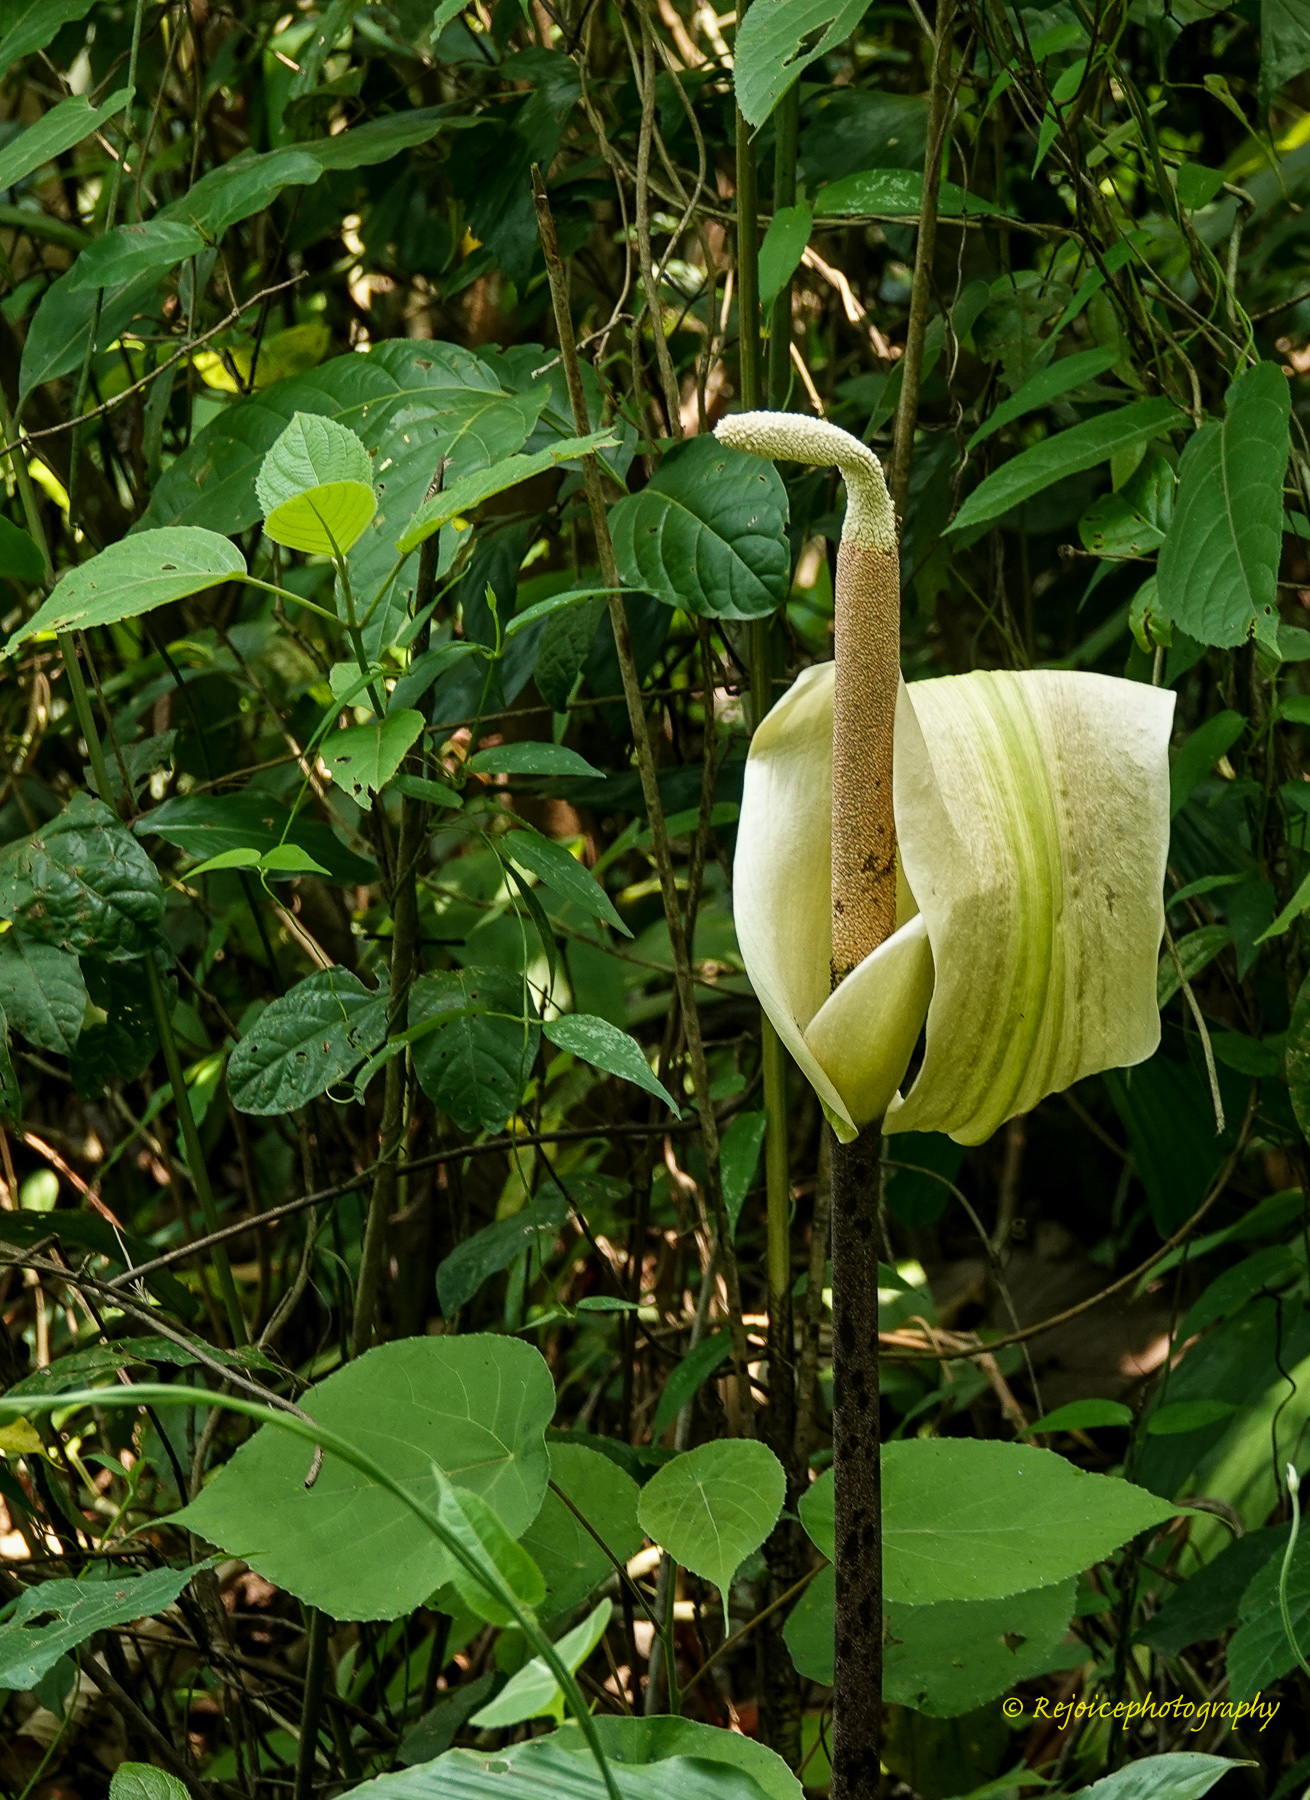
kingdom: Plantae
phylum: Tracheophyta
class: Liliopsida
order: Alismatales
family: Araceae
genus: Amorphophallus
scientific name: Amorphophallus napalensis
